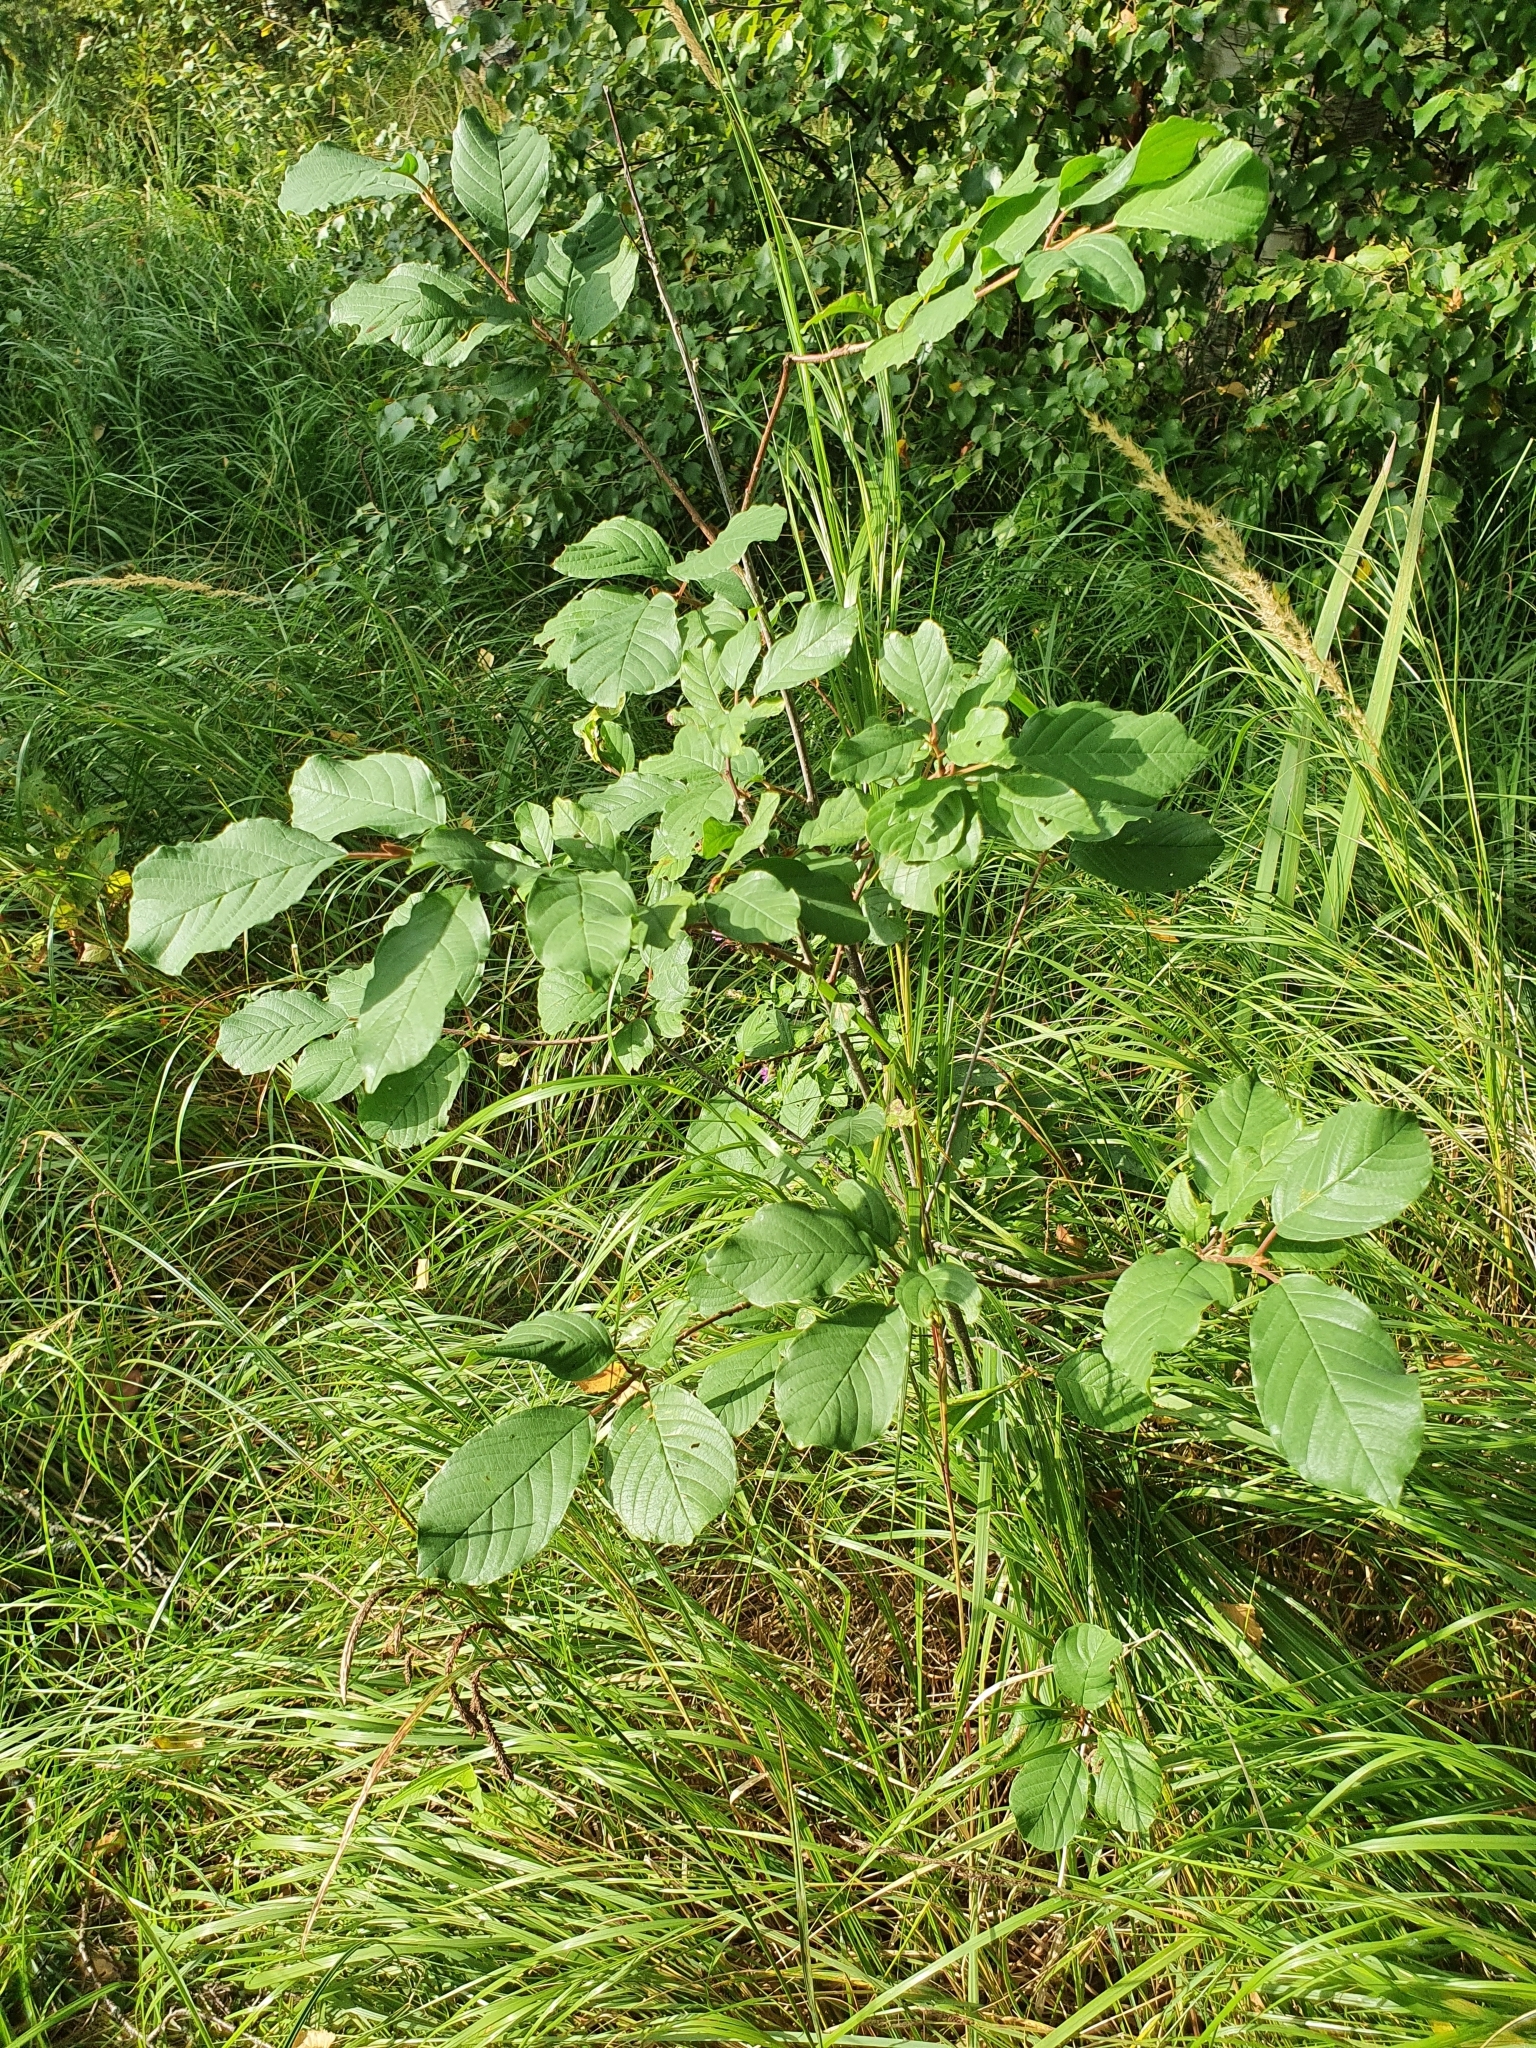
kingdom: Plantae
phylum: Tracheophyta
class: Magnoliopsida
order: Rosales
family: Rhamnaceae
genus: Frangula
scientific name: Frangula alnus
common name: Alder buckthorn
